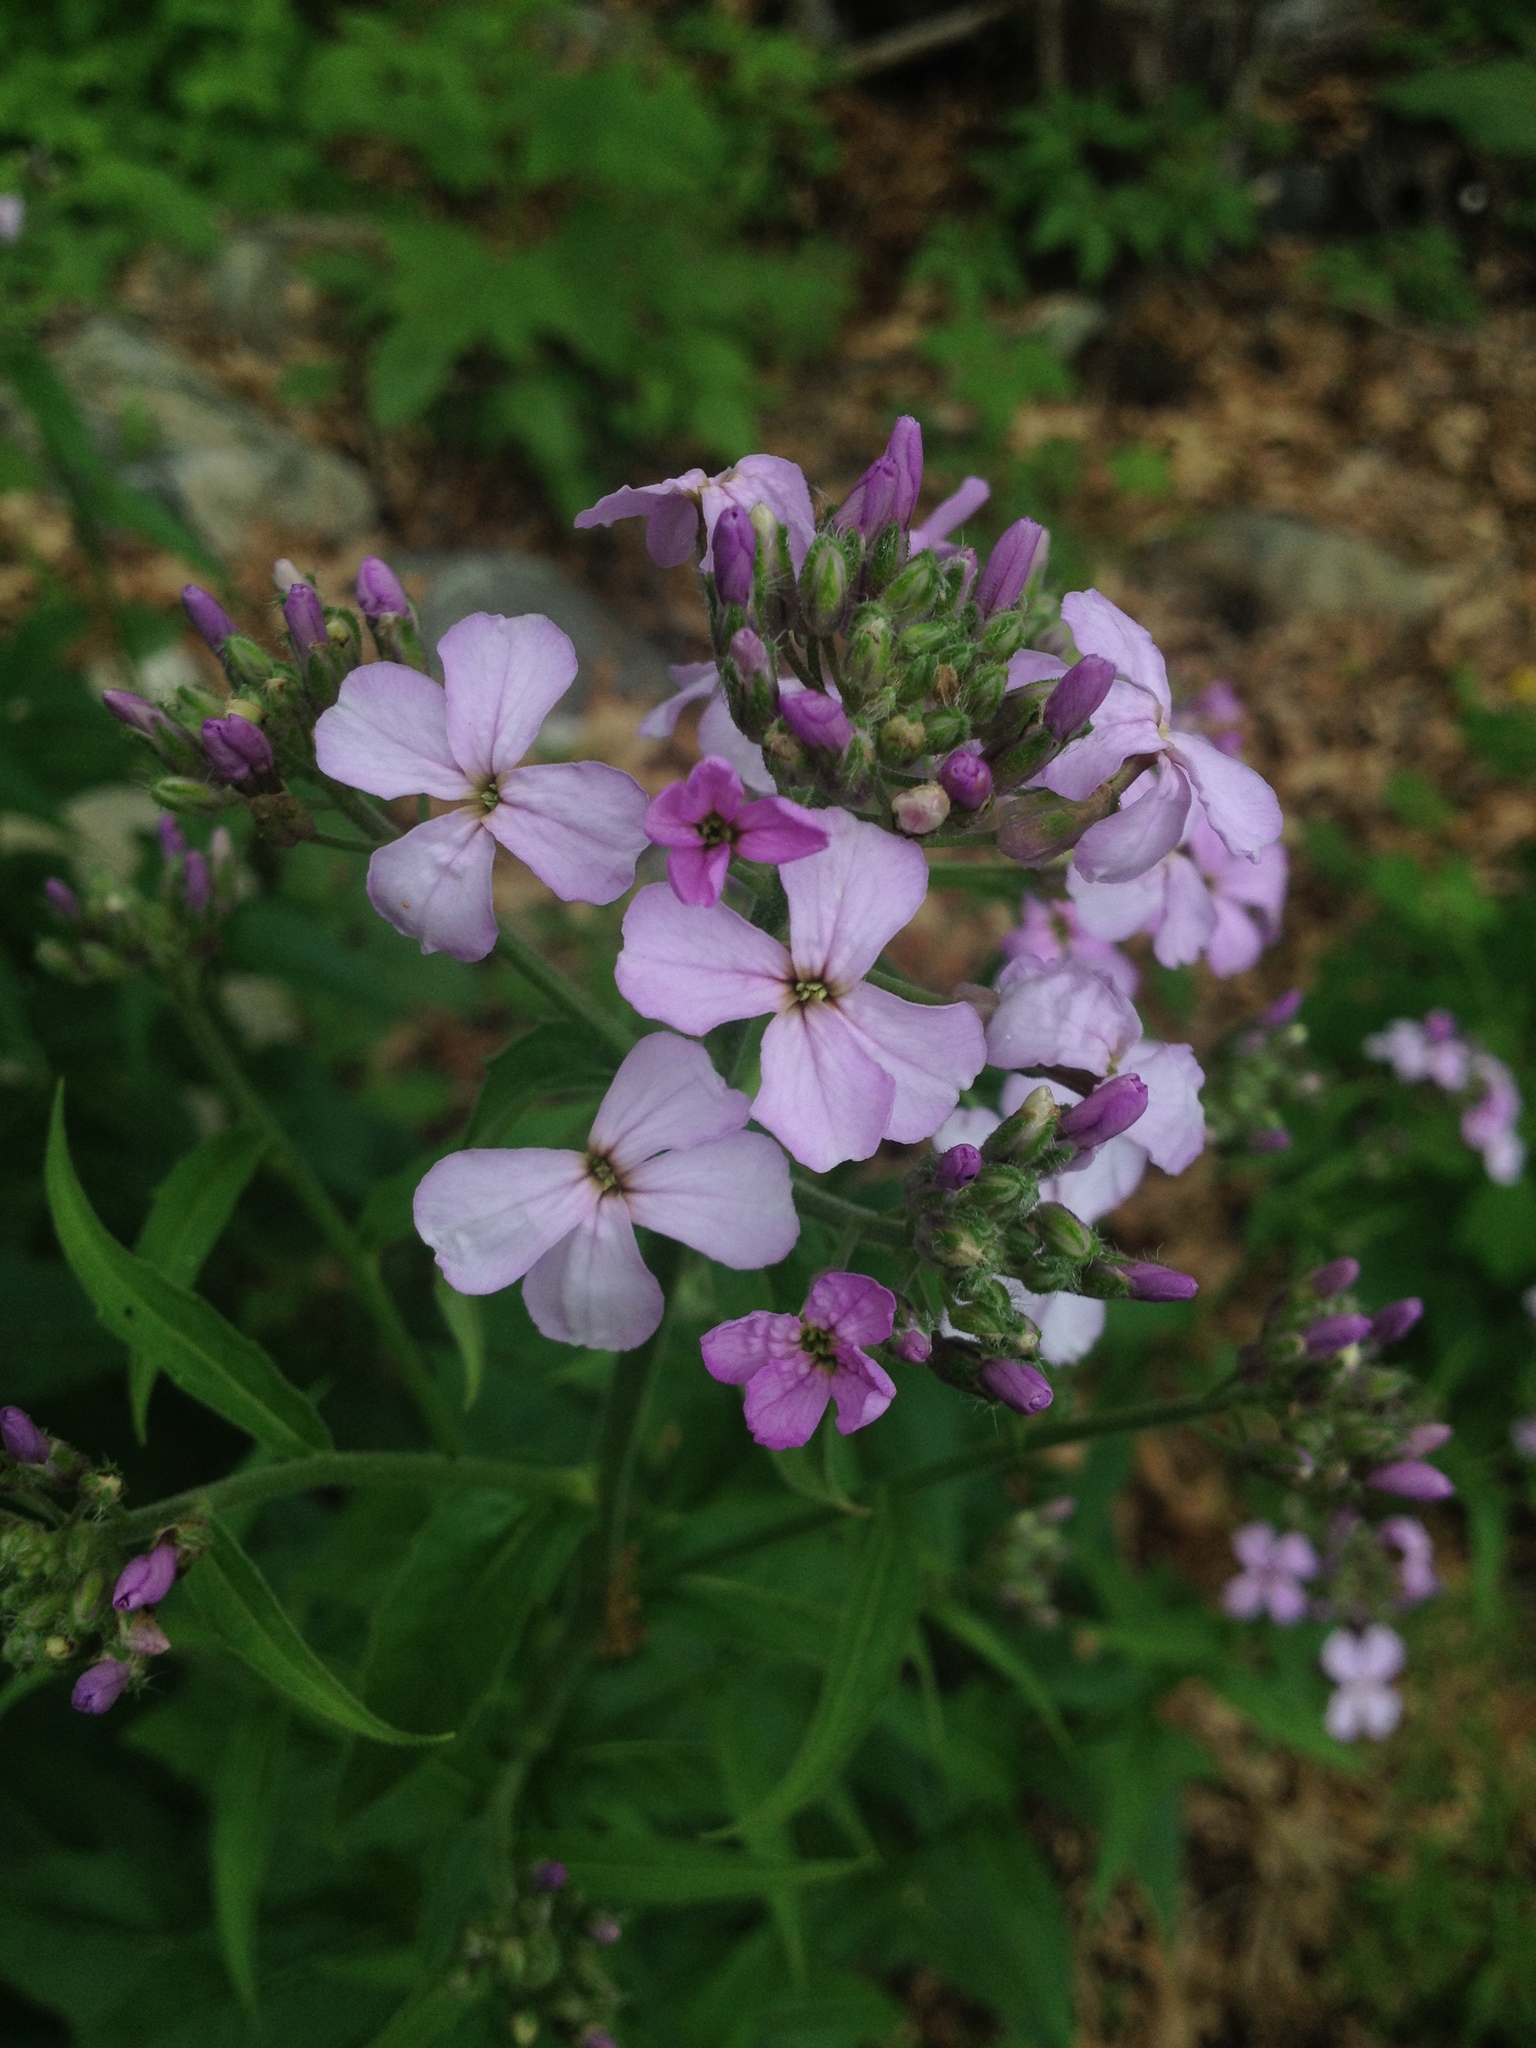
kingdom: Plantae
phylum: Tracheophyta
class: Magnoliopsida
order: Brassicales
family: Brassicaceae
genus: Hesperis
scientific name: Hesperis matronalis
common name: Dame's-violet
